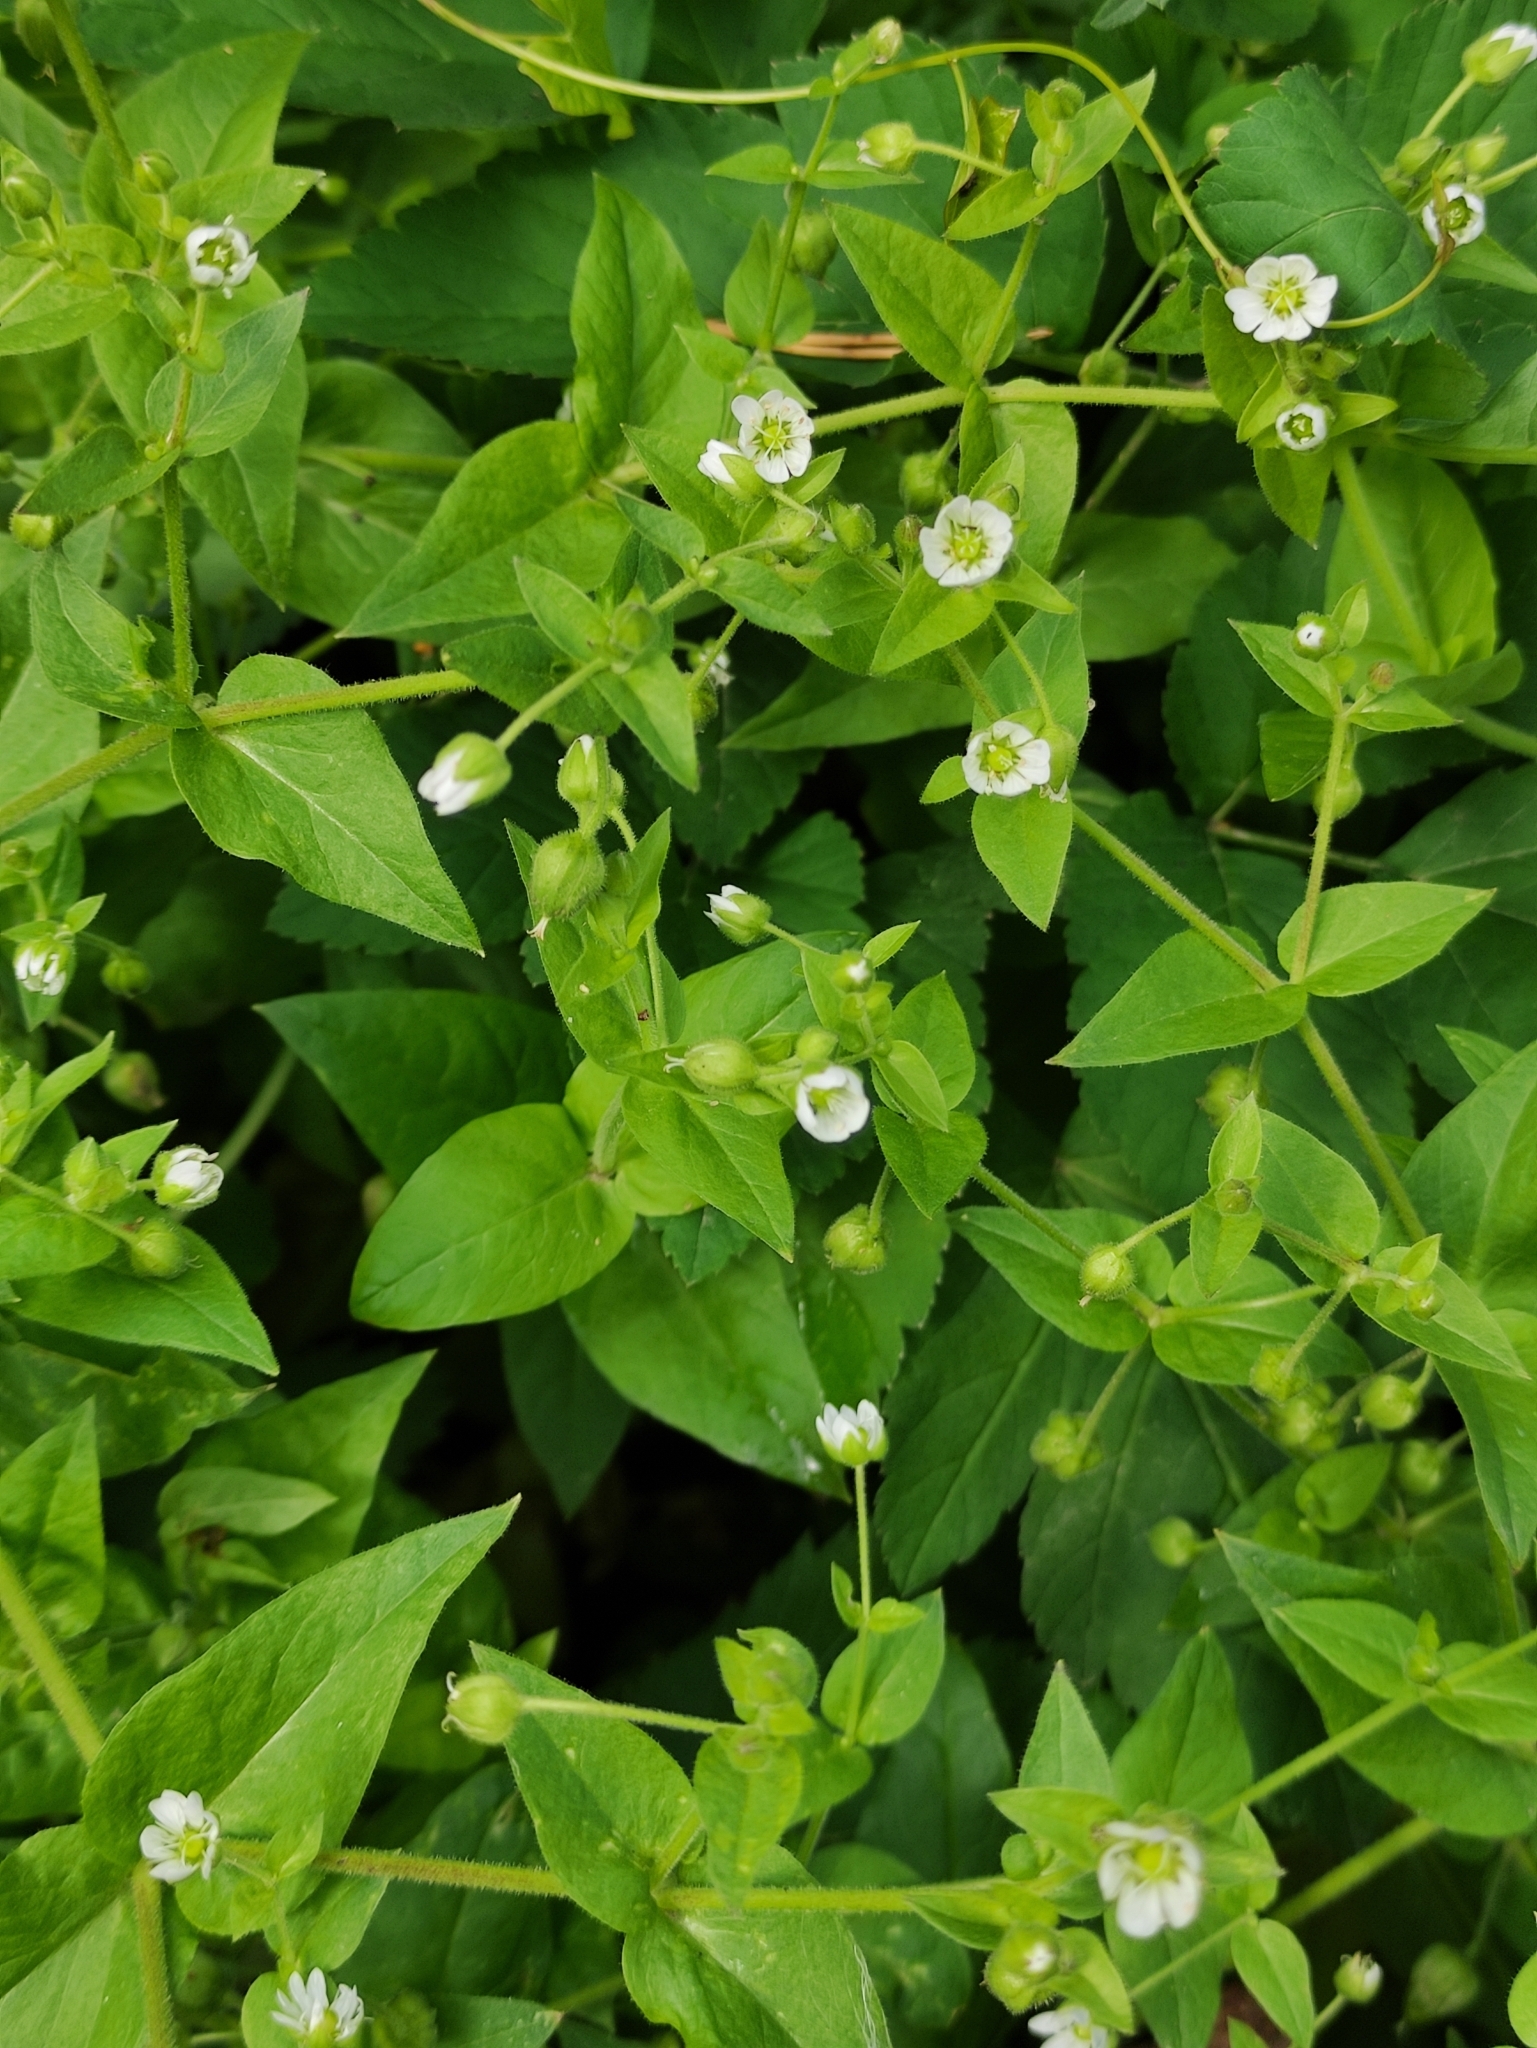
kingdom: Plantae
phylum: Tracheophyta
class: Magnoliopsida
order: Caryophyllales
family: Caryophyllaceae
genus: Stellaria
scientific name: Stellaria aquatica
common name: Water chickweed
